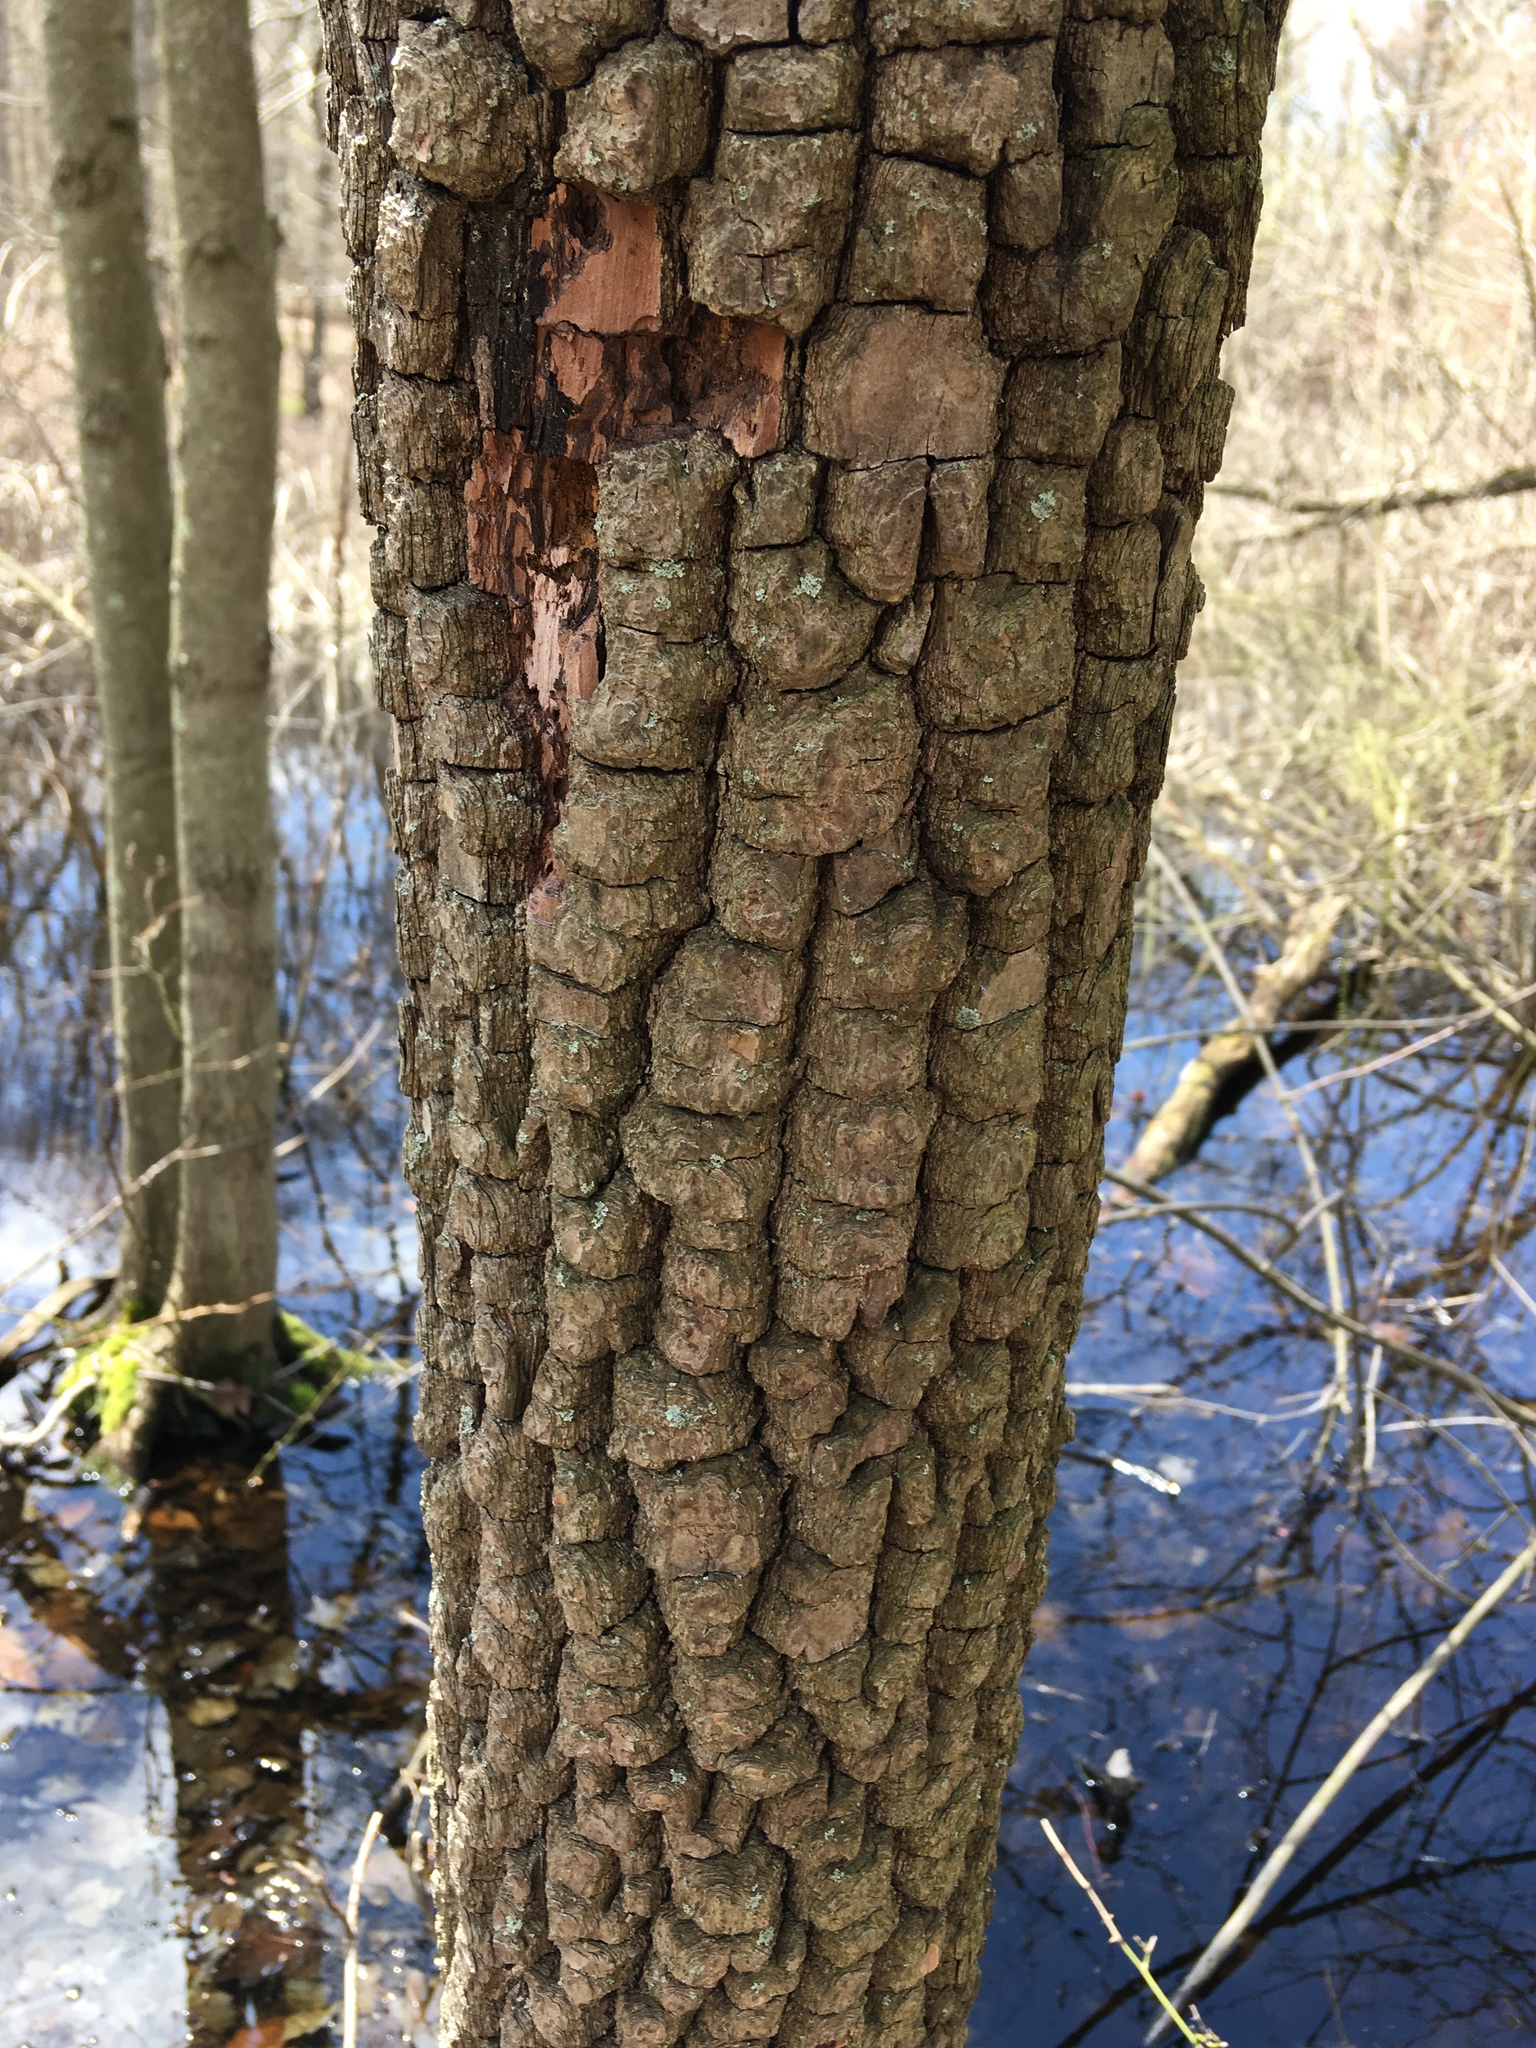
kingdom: Plantae
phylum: Tracheophyta
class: Magnoliopsida
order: Ericales
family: Ebenaceae
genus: Diospyros
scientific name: Diospyros virginiana
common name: Persimmon
